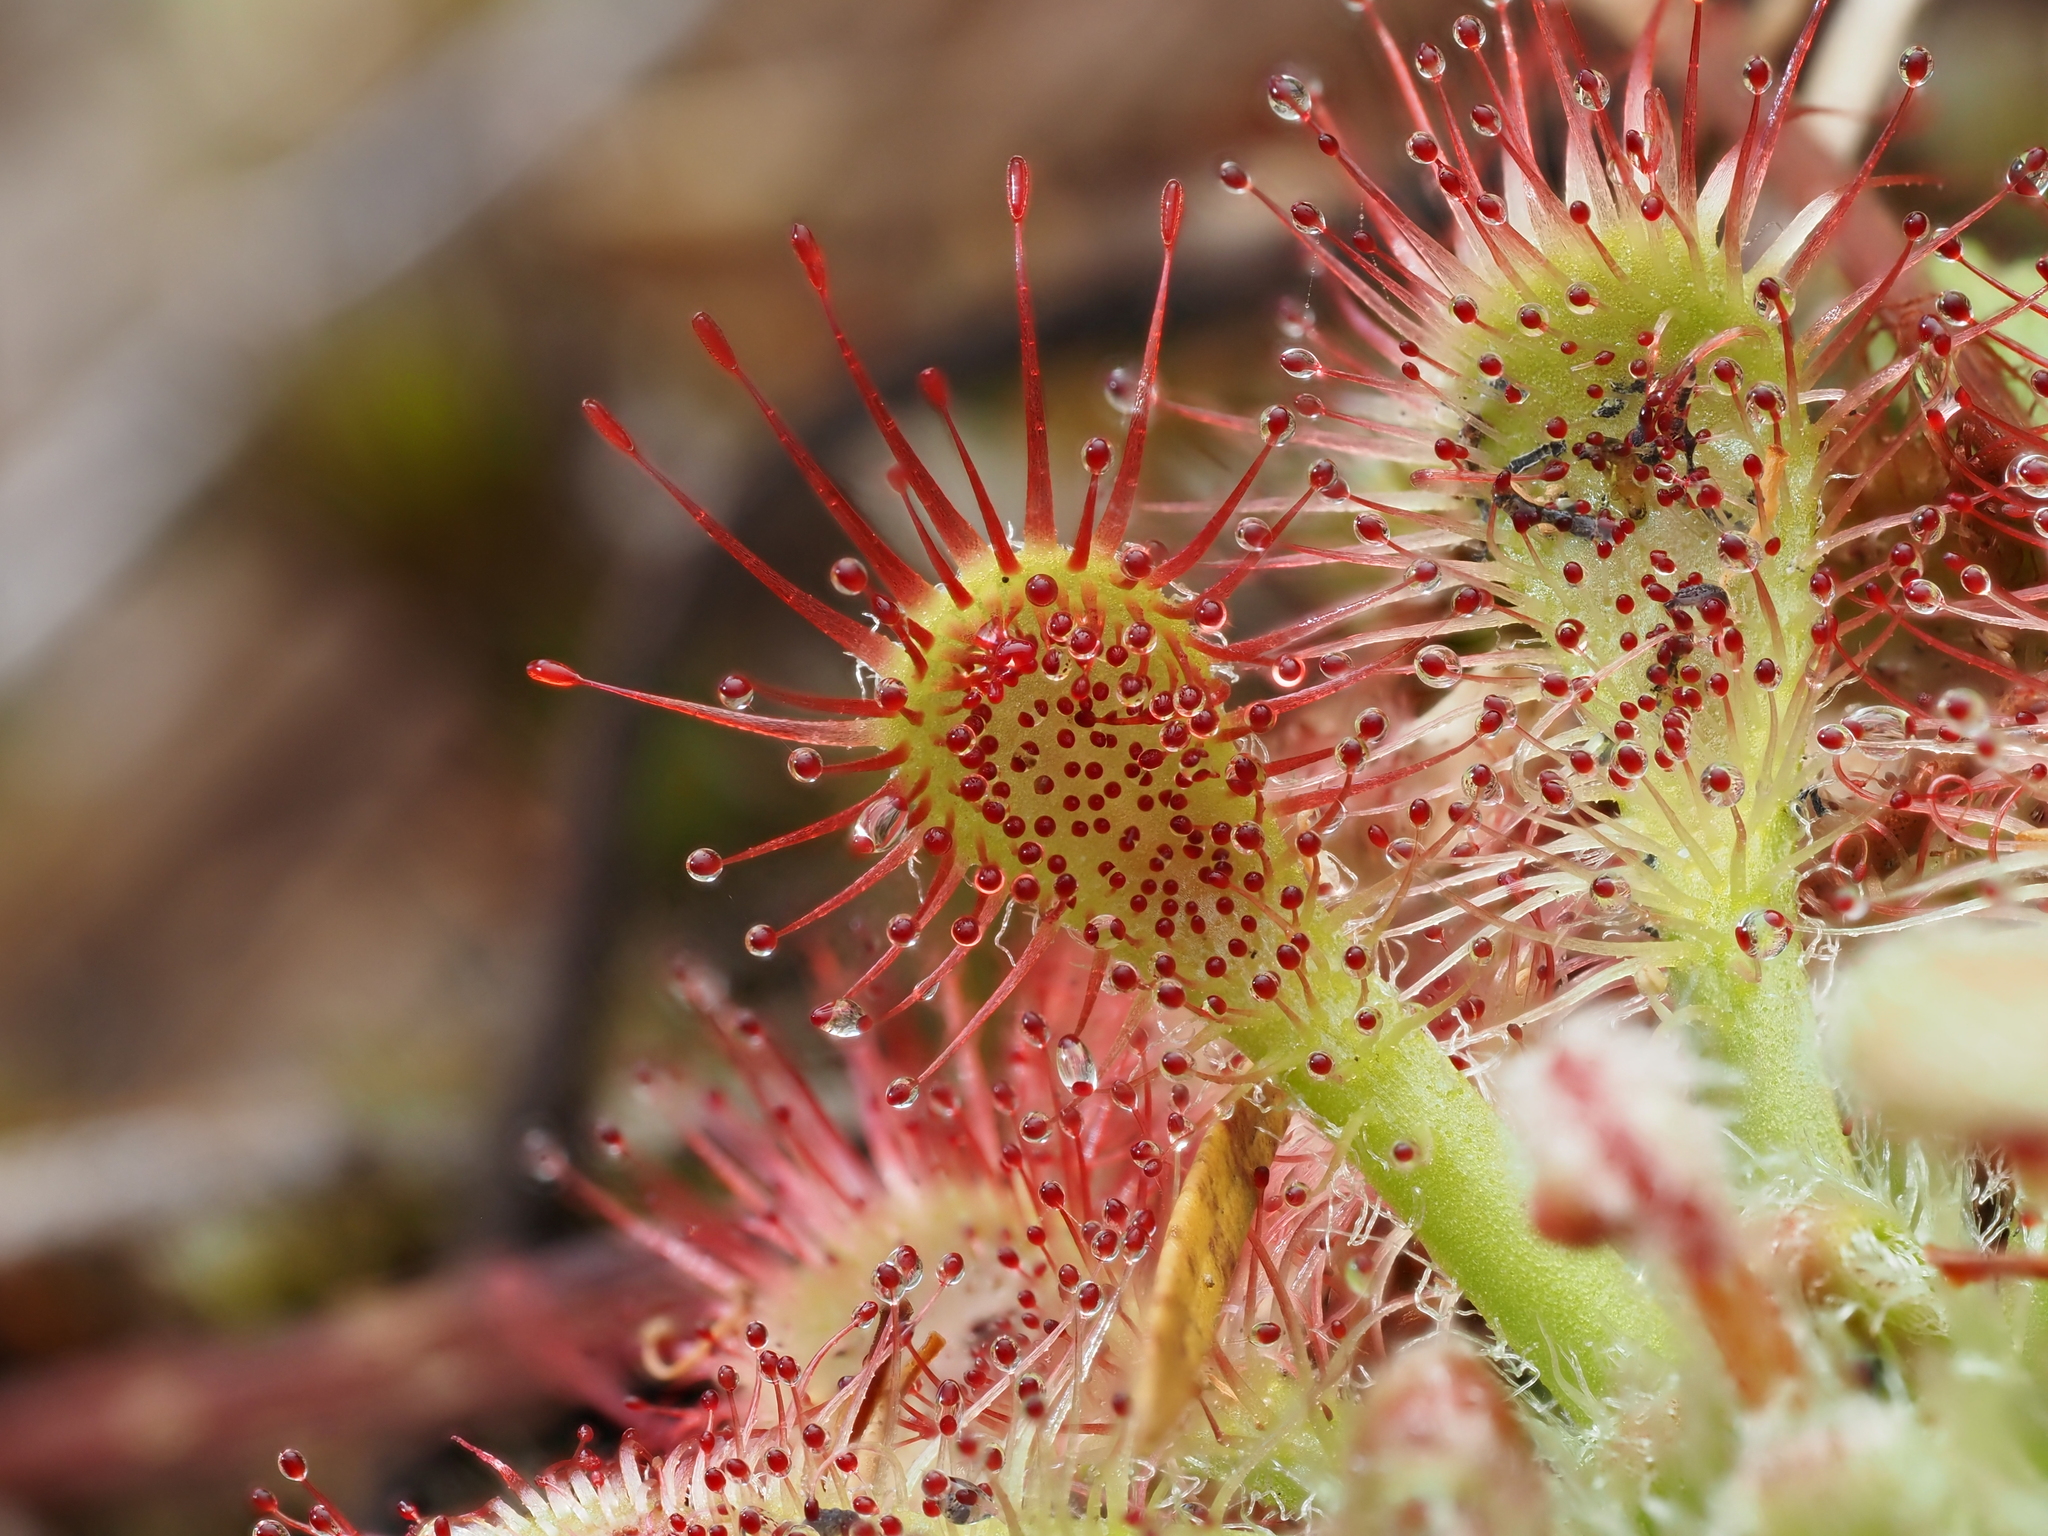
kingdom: Plantae
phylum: Tracheophyta
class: Magnoliopsida
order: Caryophyllales
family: Droseraceae
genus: Drosera
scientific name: Drosera spatulata
